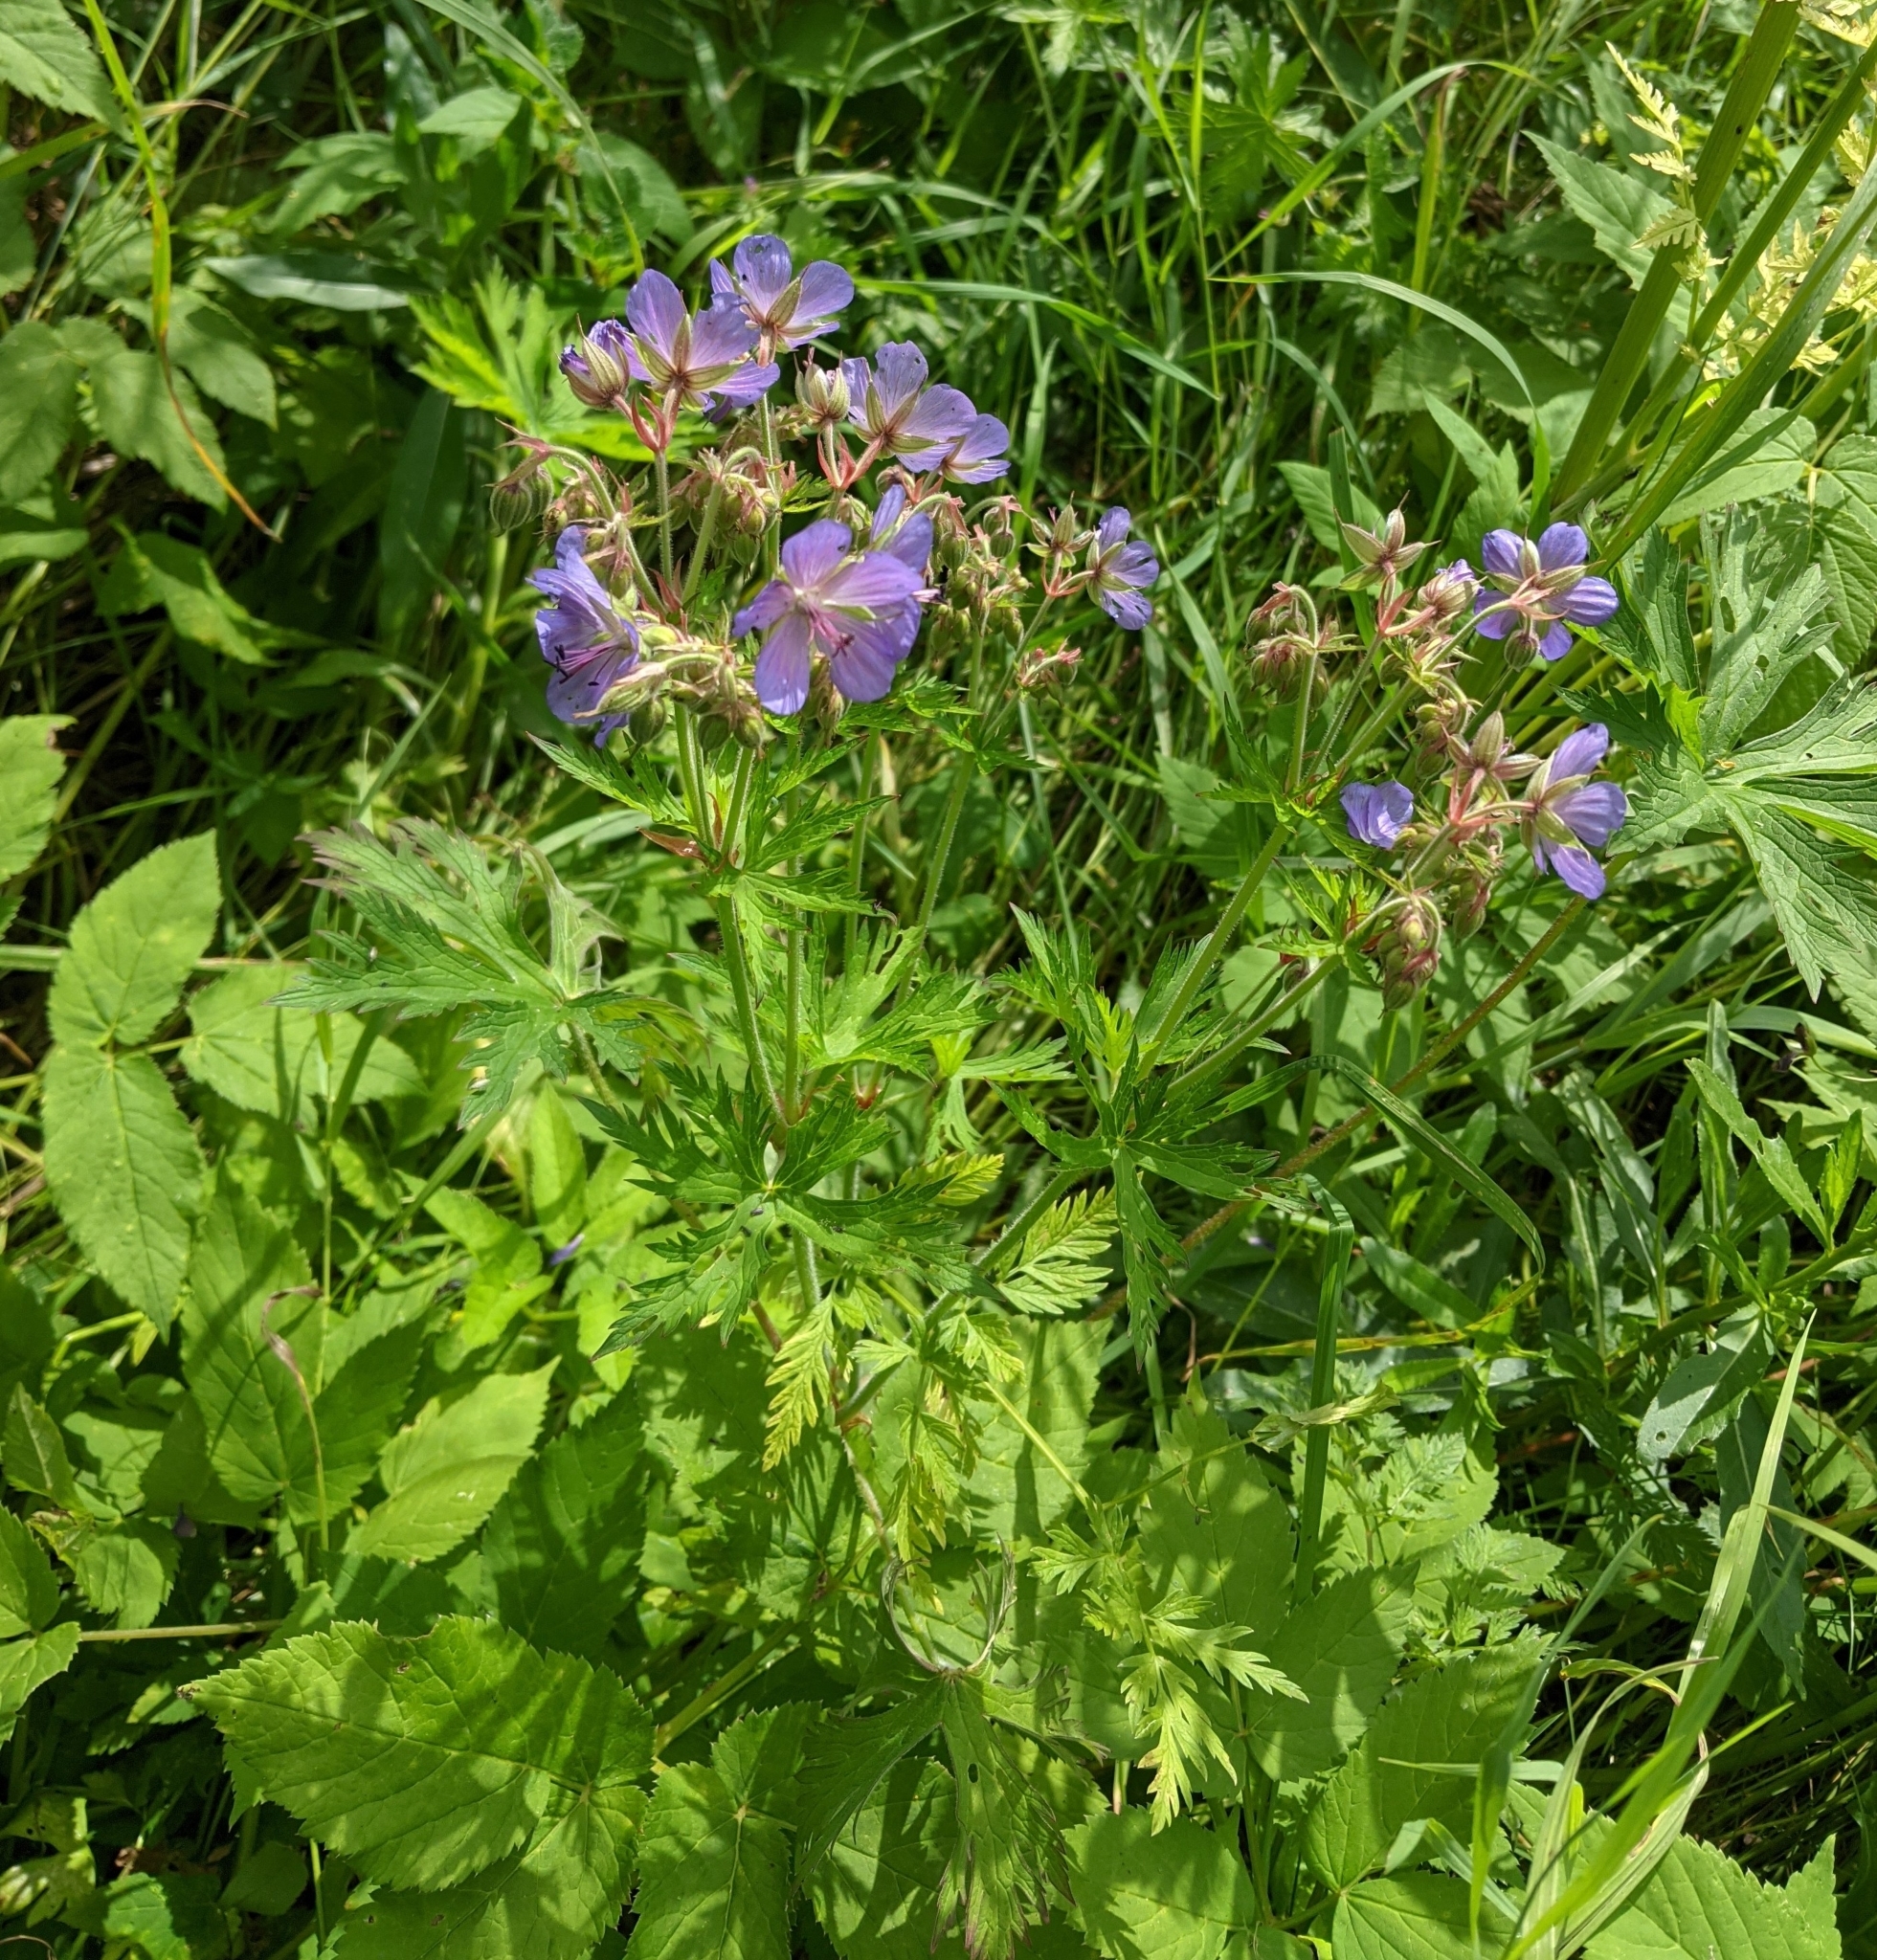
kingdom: Plantae
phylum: Tracheophyta
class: Magnoliopsida
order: Geraniales
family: Geraniaceae
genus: Geranium
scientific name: Geranium pratense
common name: Meadow crane's-bill
